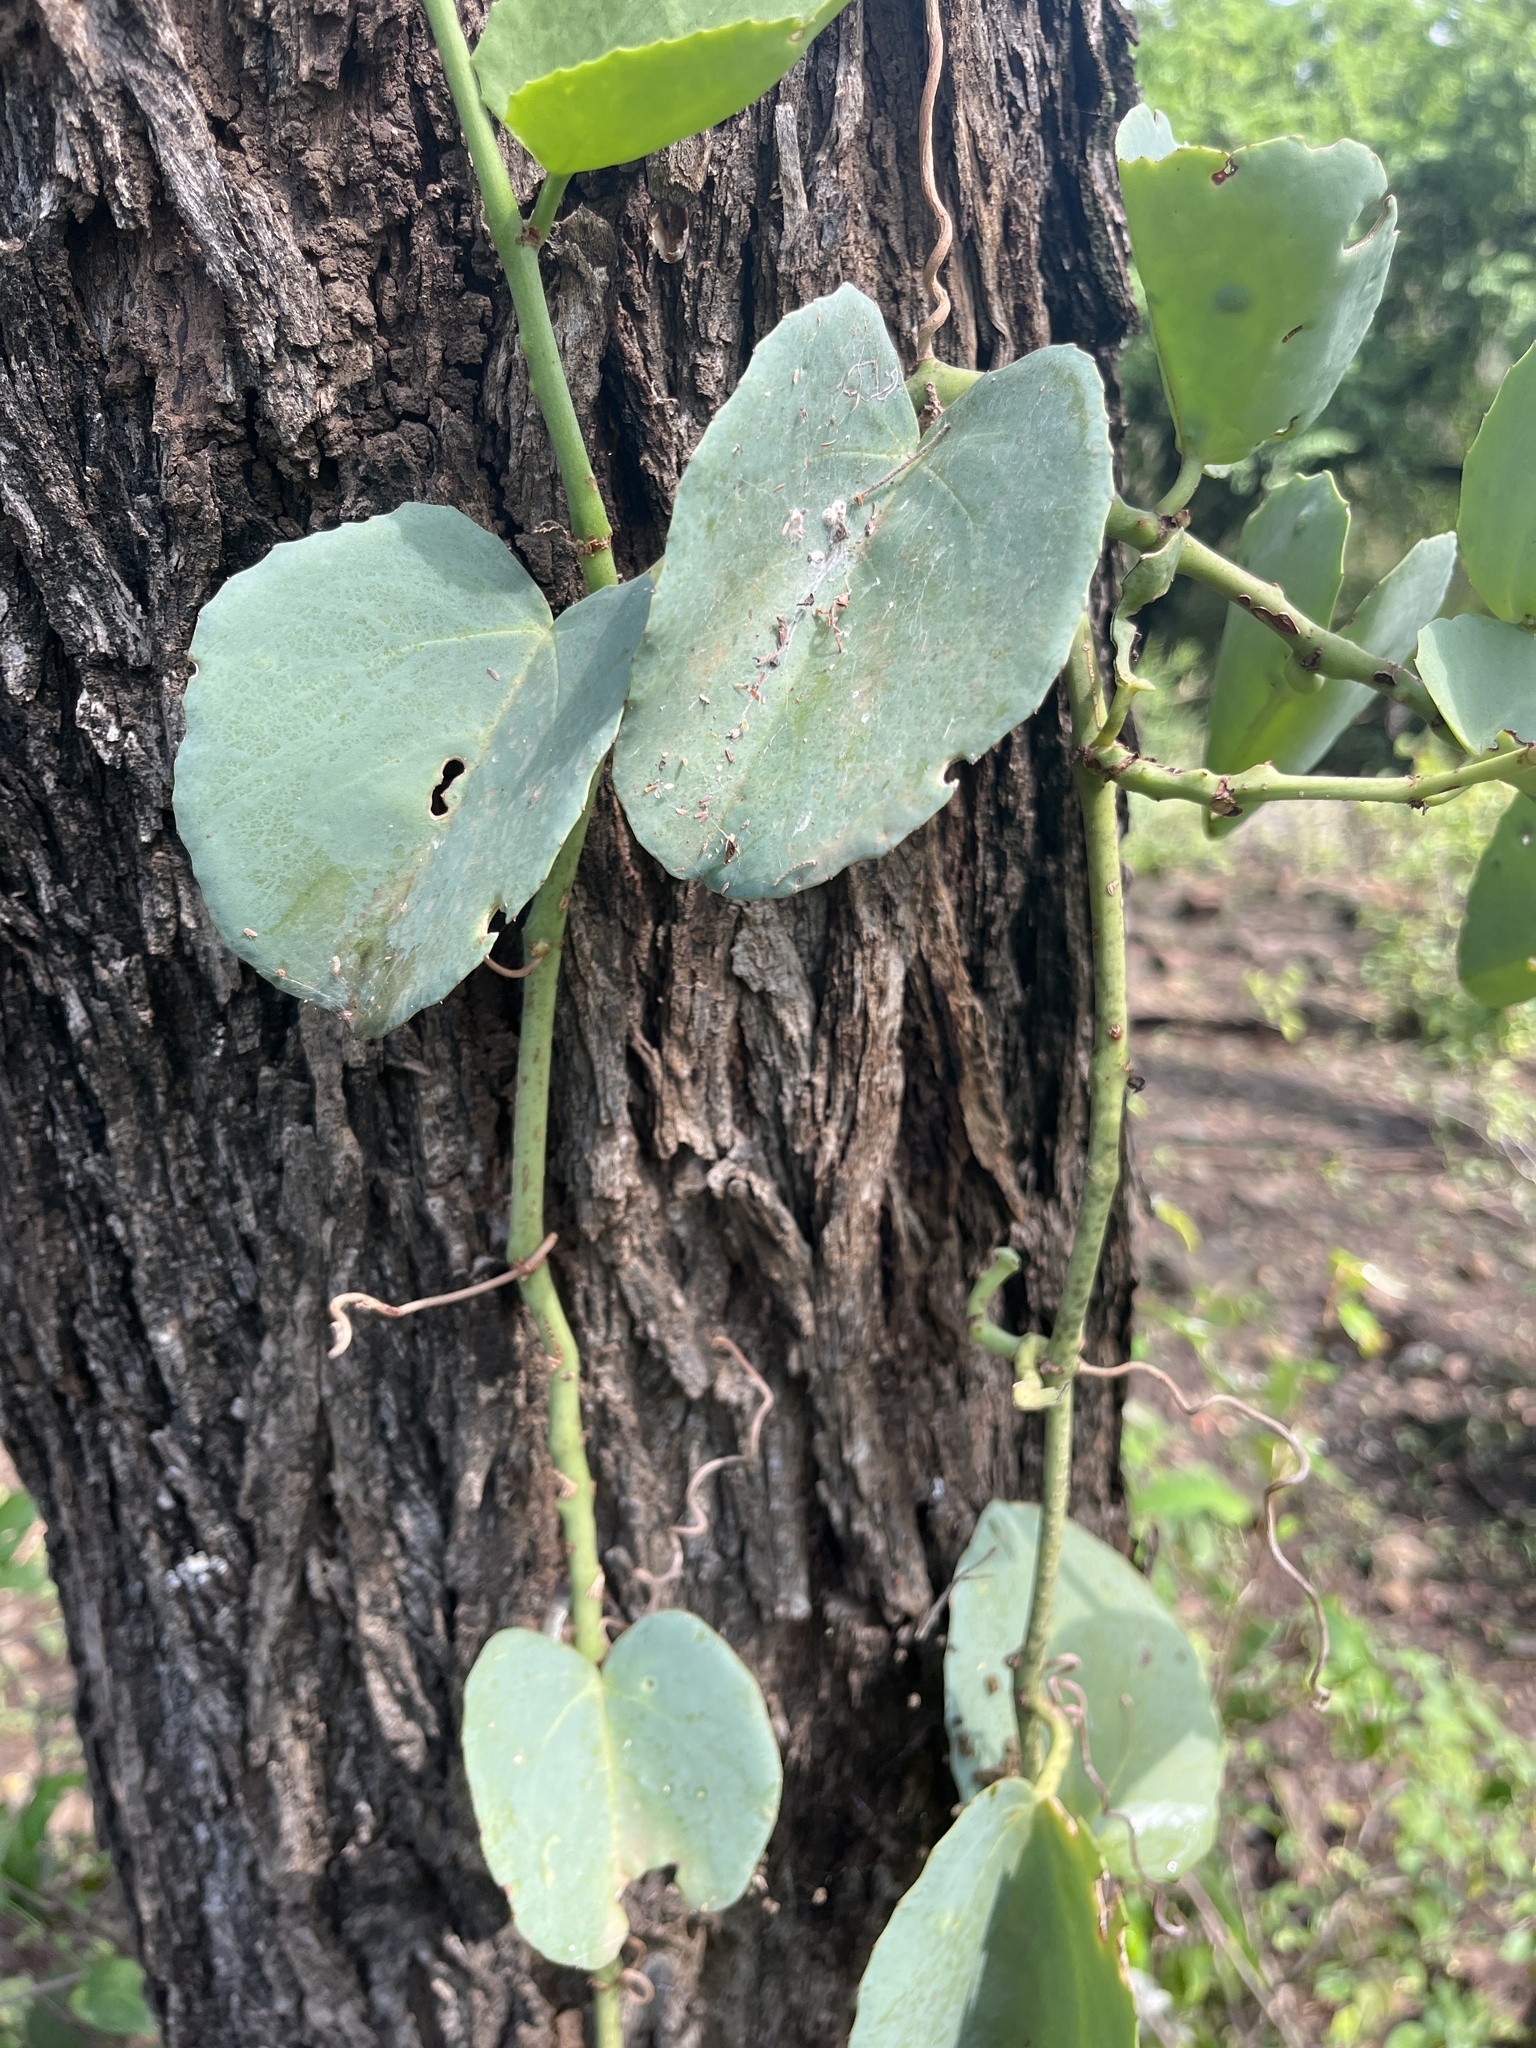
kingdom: Plantae
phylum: Tracheophyta
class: Magnoliopsida
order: Vitales
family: Vitaceae
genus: Cissus
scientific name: Cissus rotundifolia
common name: Arabian wax cissus
